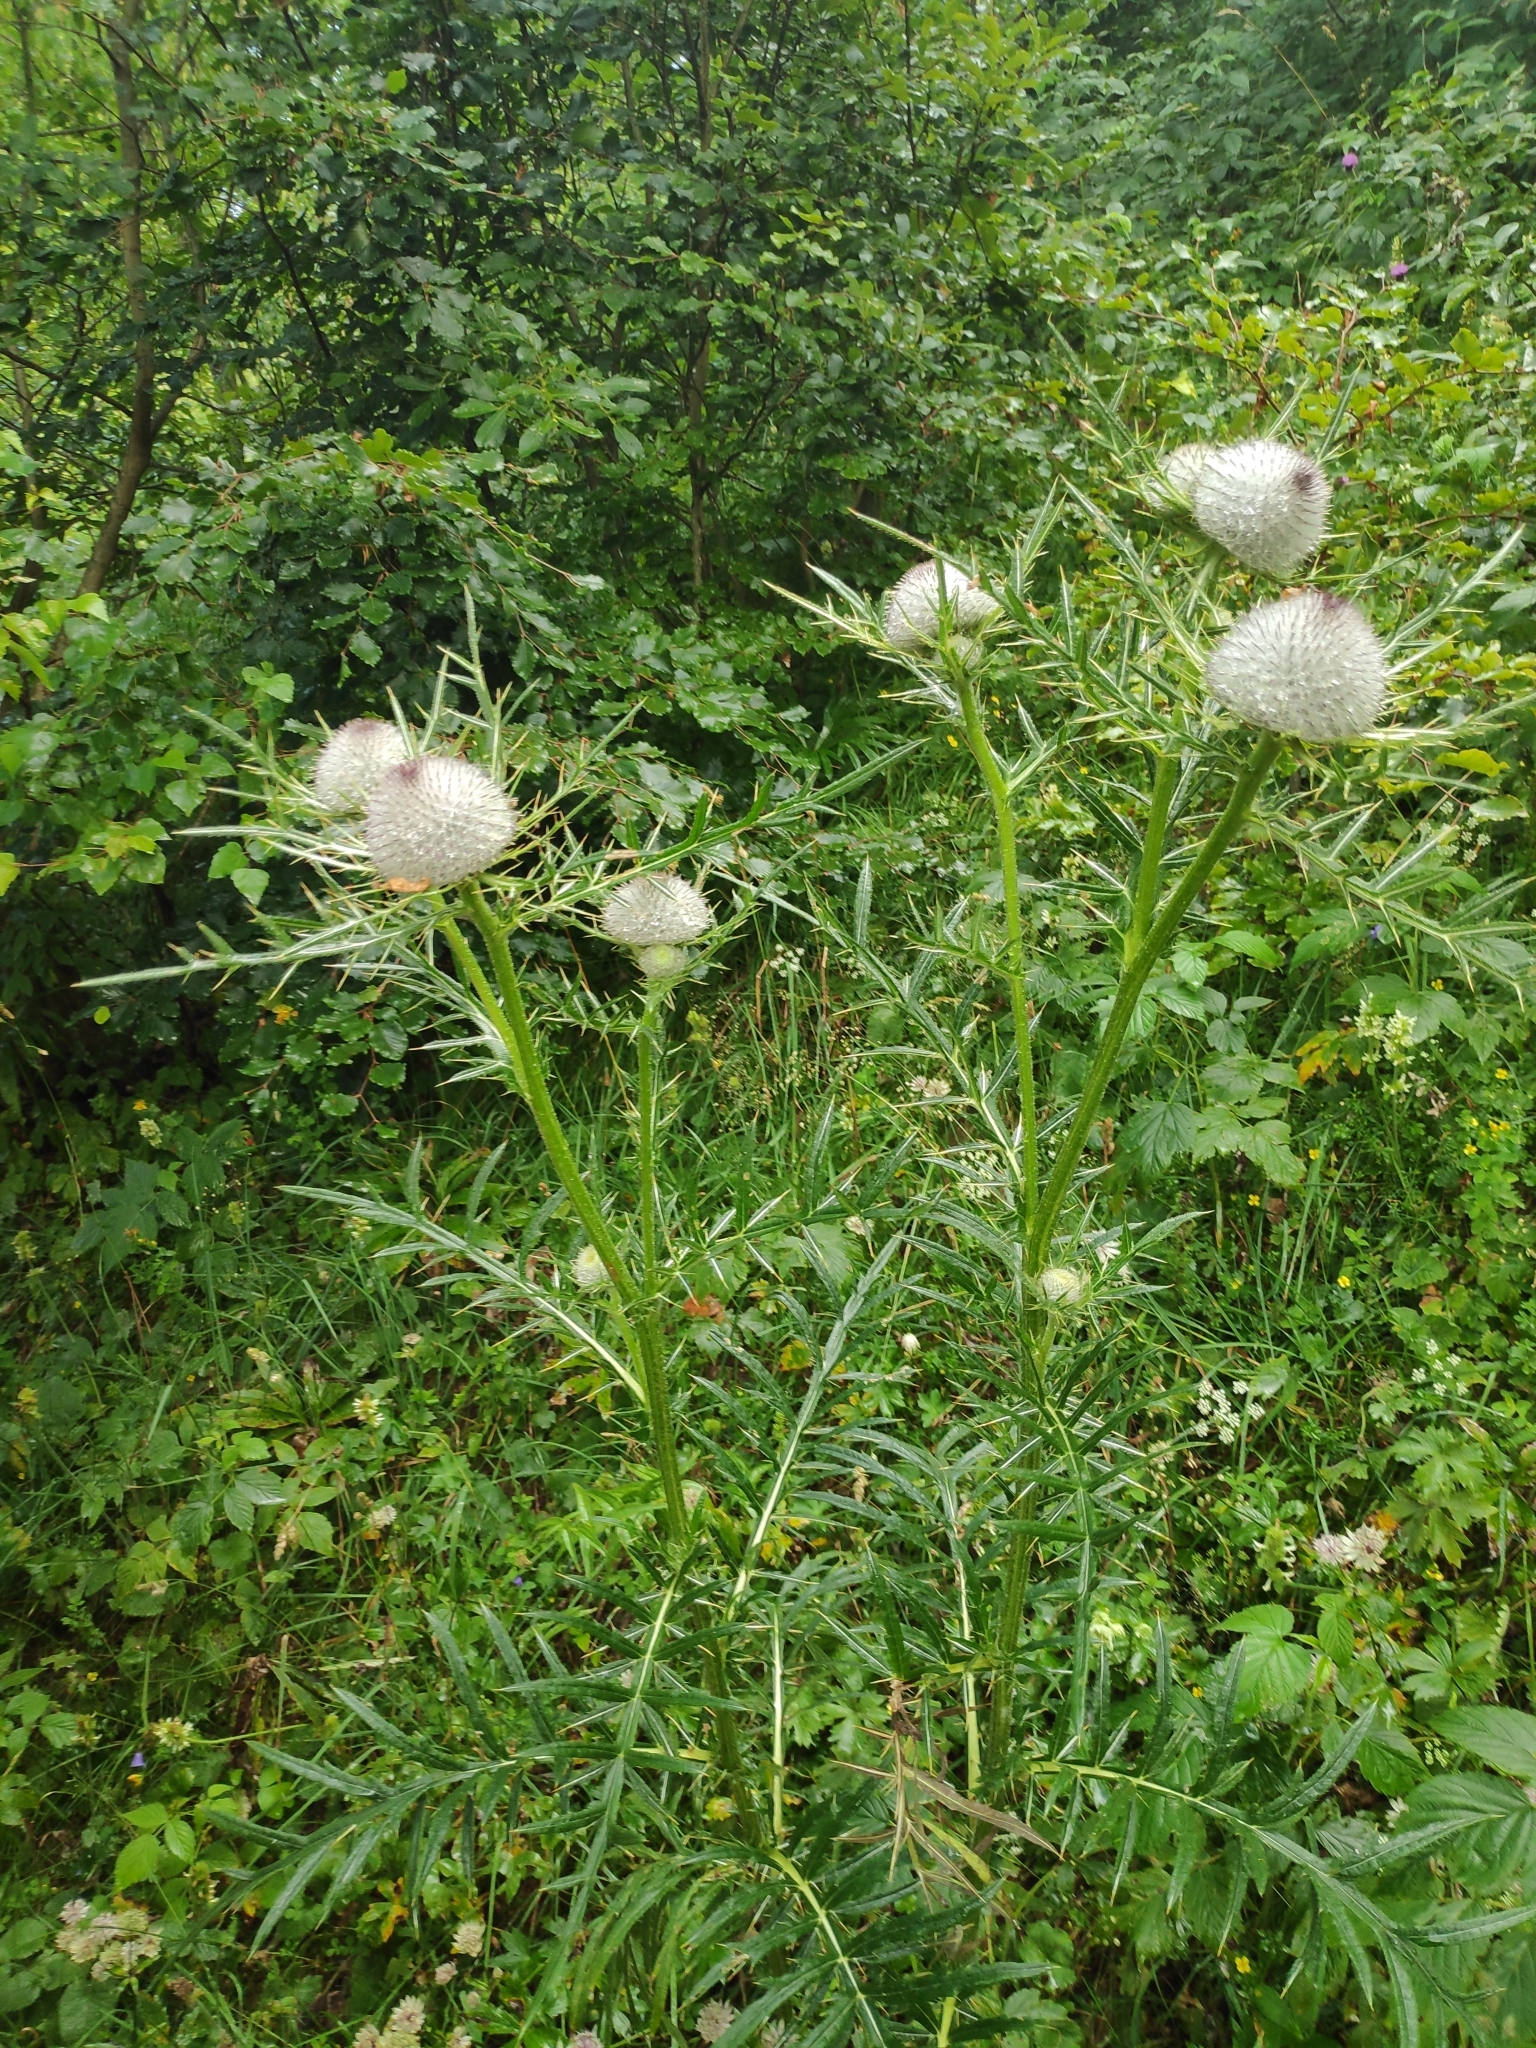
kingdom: Plantae
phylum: Tracheophyta
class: Magnoliopsida
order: Asterales
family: Asteraceae
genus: Lophiolepis
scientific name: Lophiolepis eriophora
